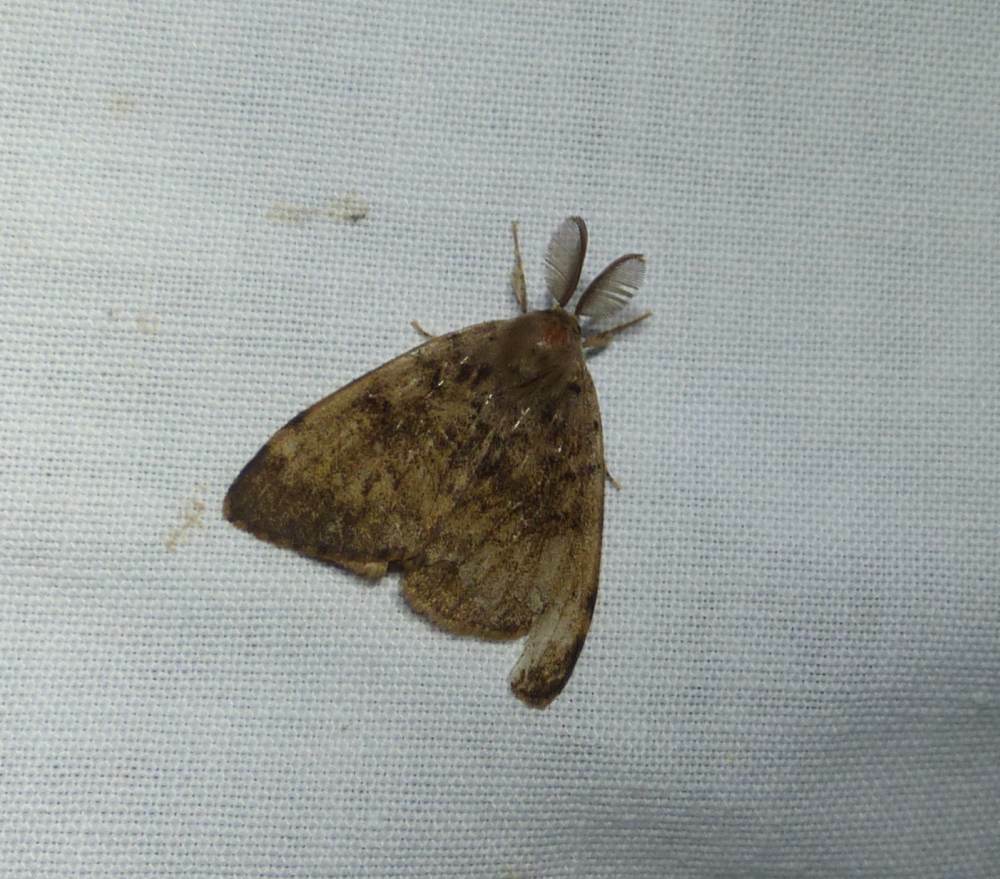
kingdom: Animalia
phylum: Arthropoda
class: Insecta
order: Lepidoptera
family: Erebidae
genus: Lymantria
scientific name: Lymantria dispar
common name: Gypsy moth
